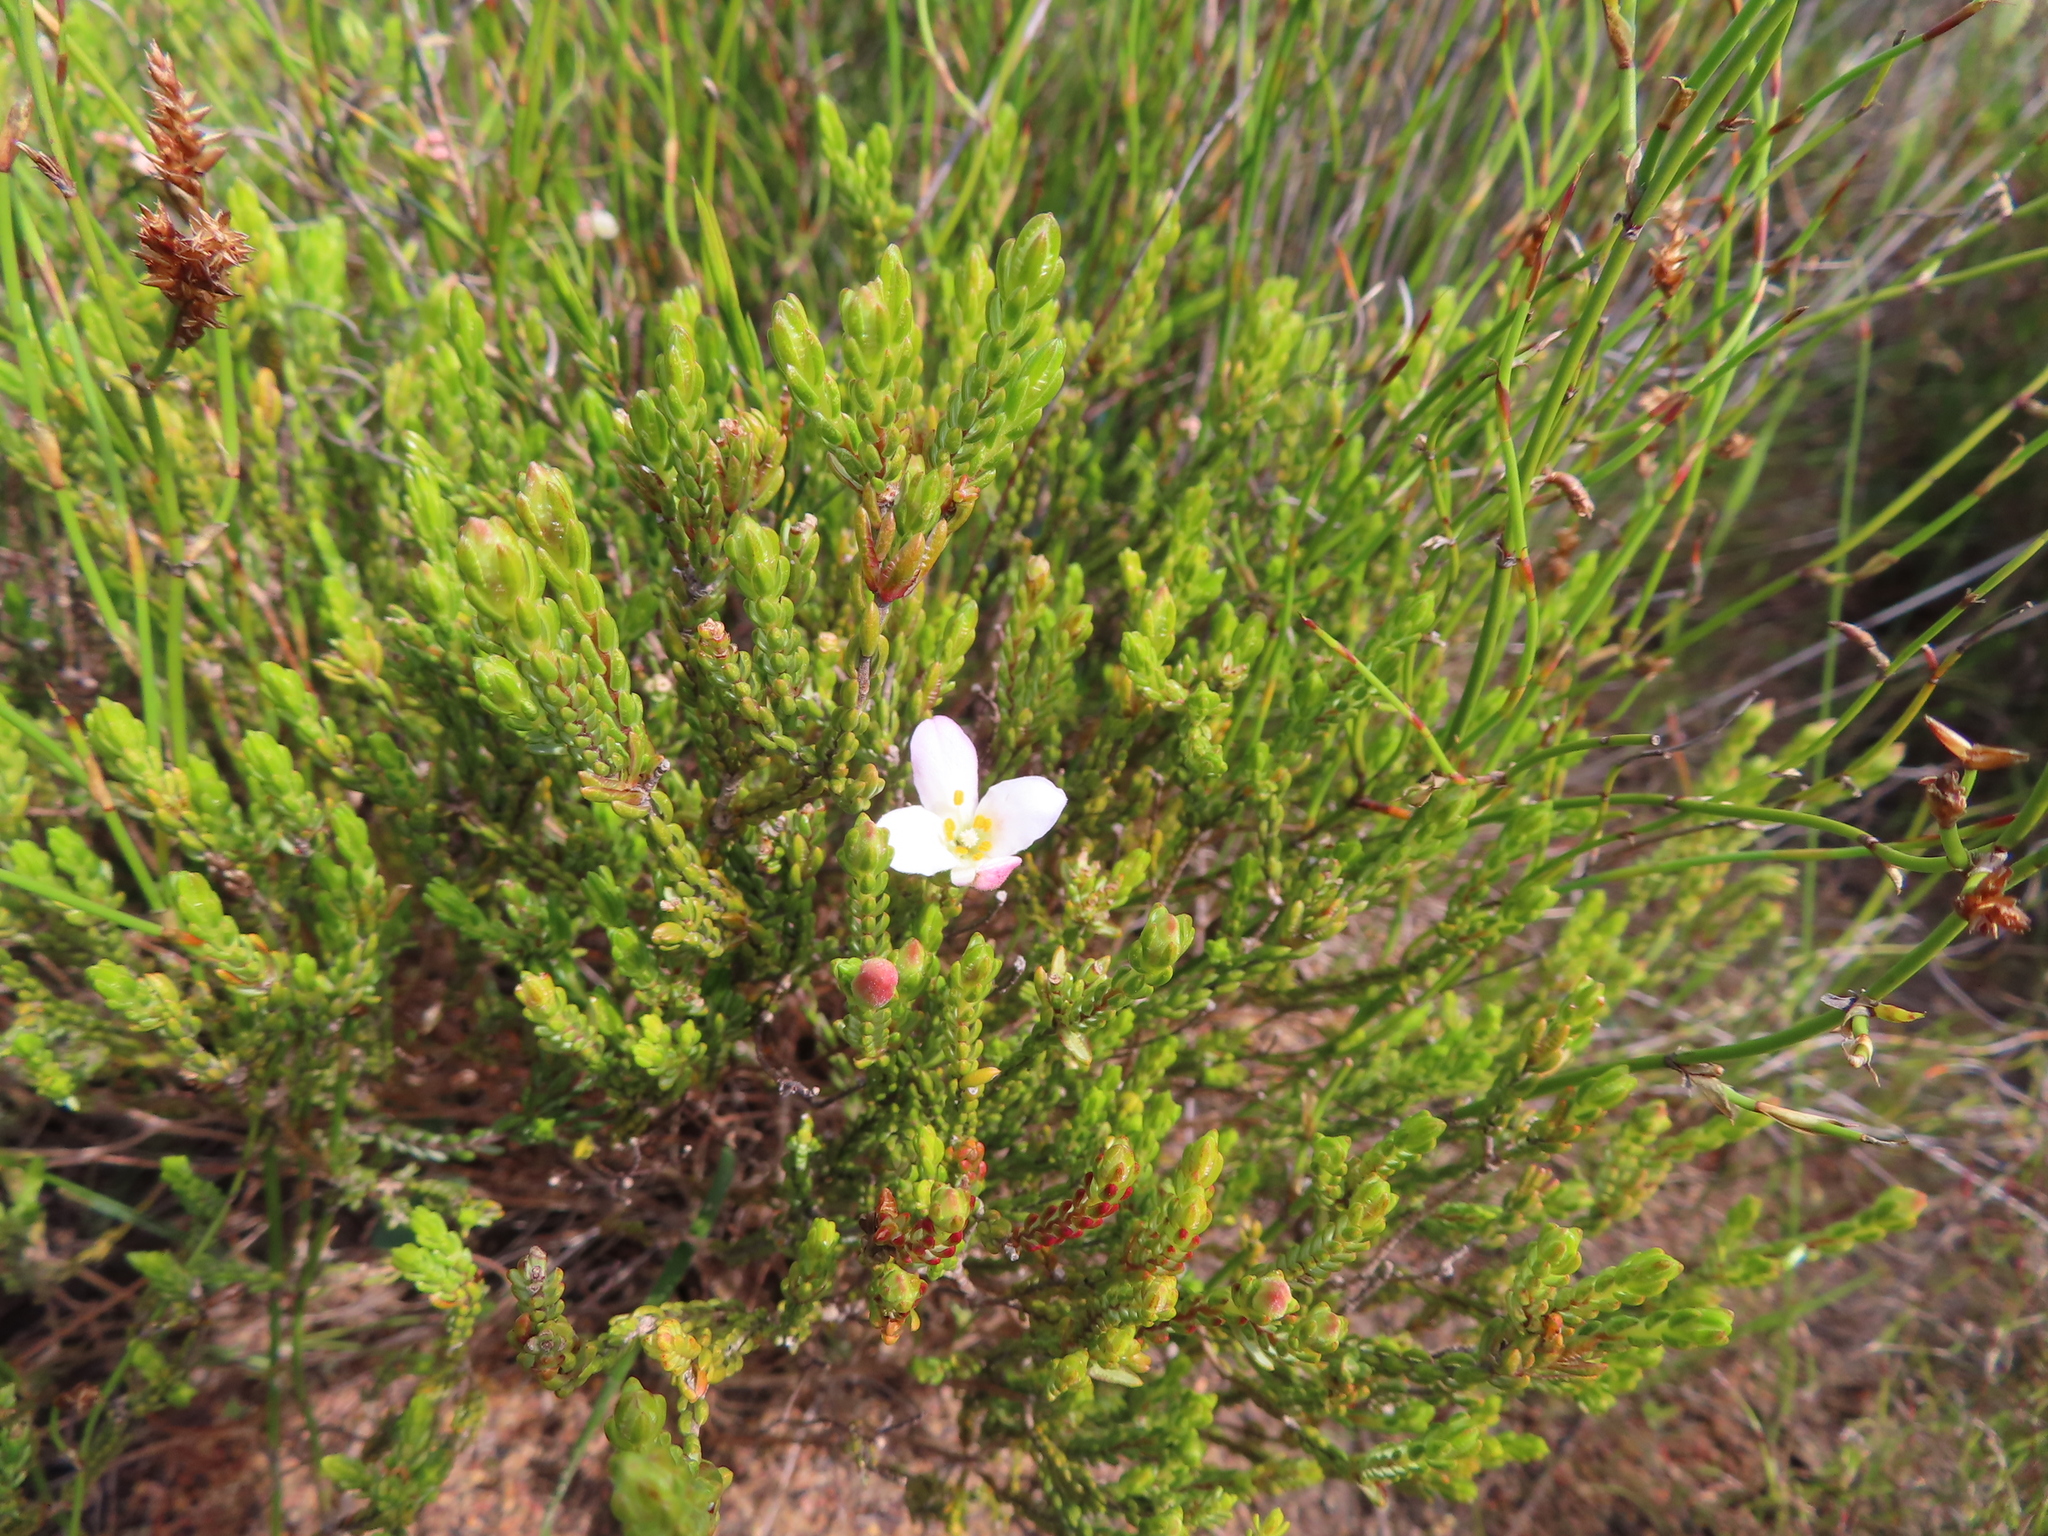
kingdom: Plantae
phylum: Tracheophyta
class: Magnoliopsida
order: Malvales
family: Thymelaeaceae
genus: Lachnaea
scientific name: Lachnaea grandiflora
